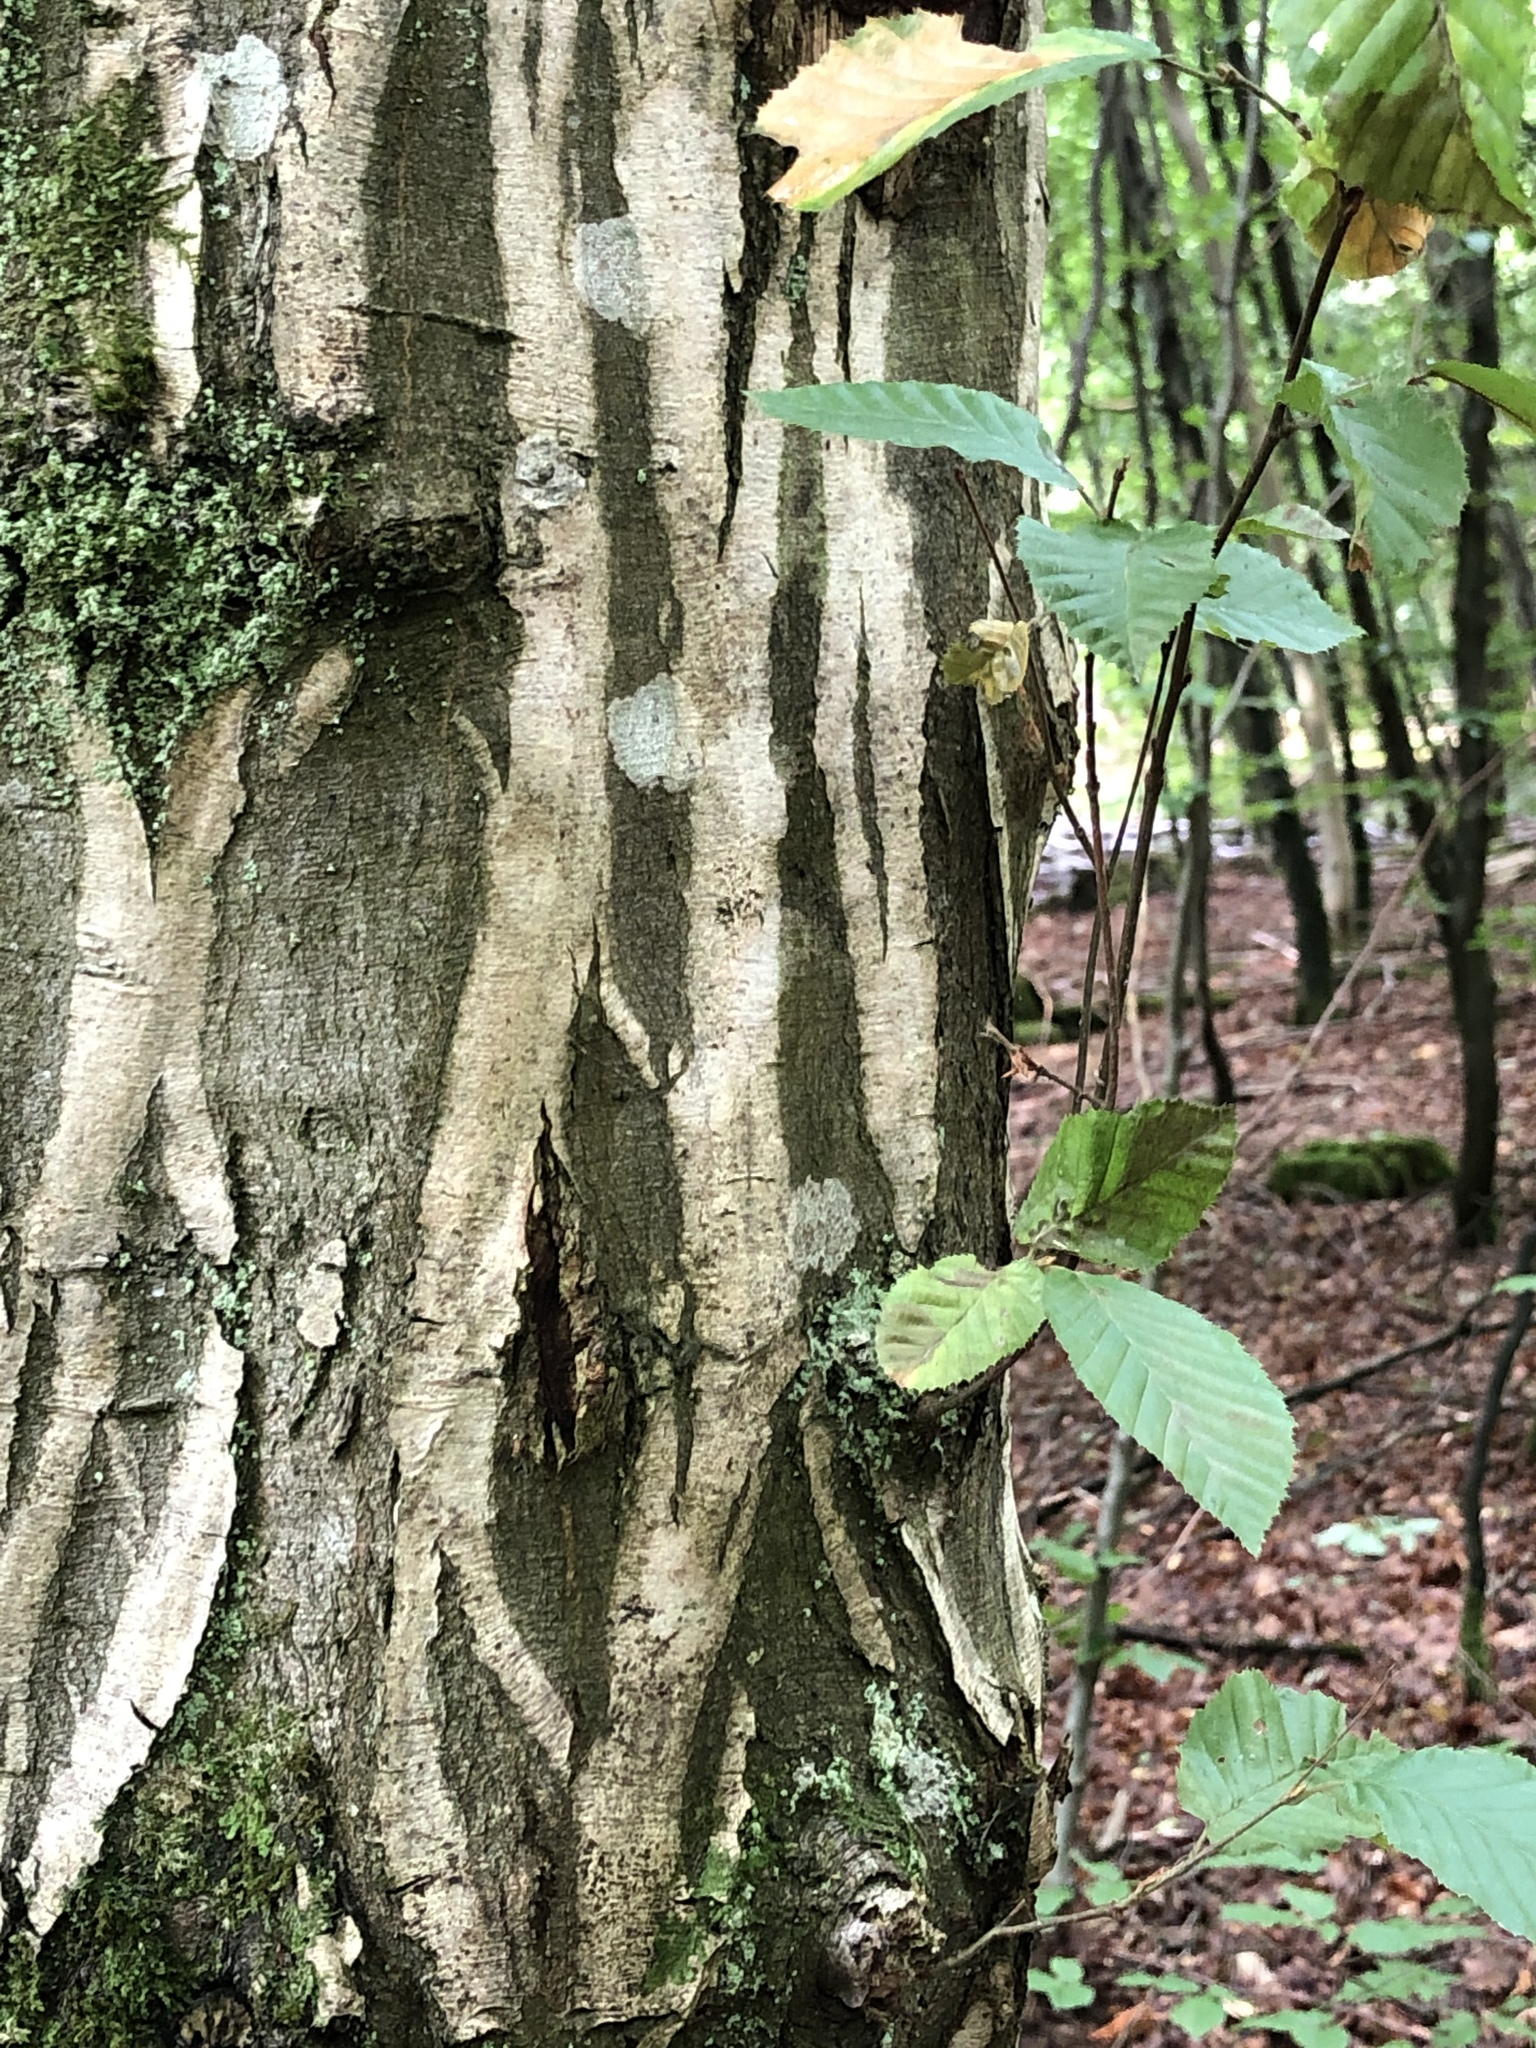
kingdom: Plantae
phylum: Tracheophyta
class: Magnoliopsida
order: Fagales
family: Betulaceae
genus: Carpinus
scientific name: Carpinus betulus
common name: Hornbeam
